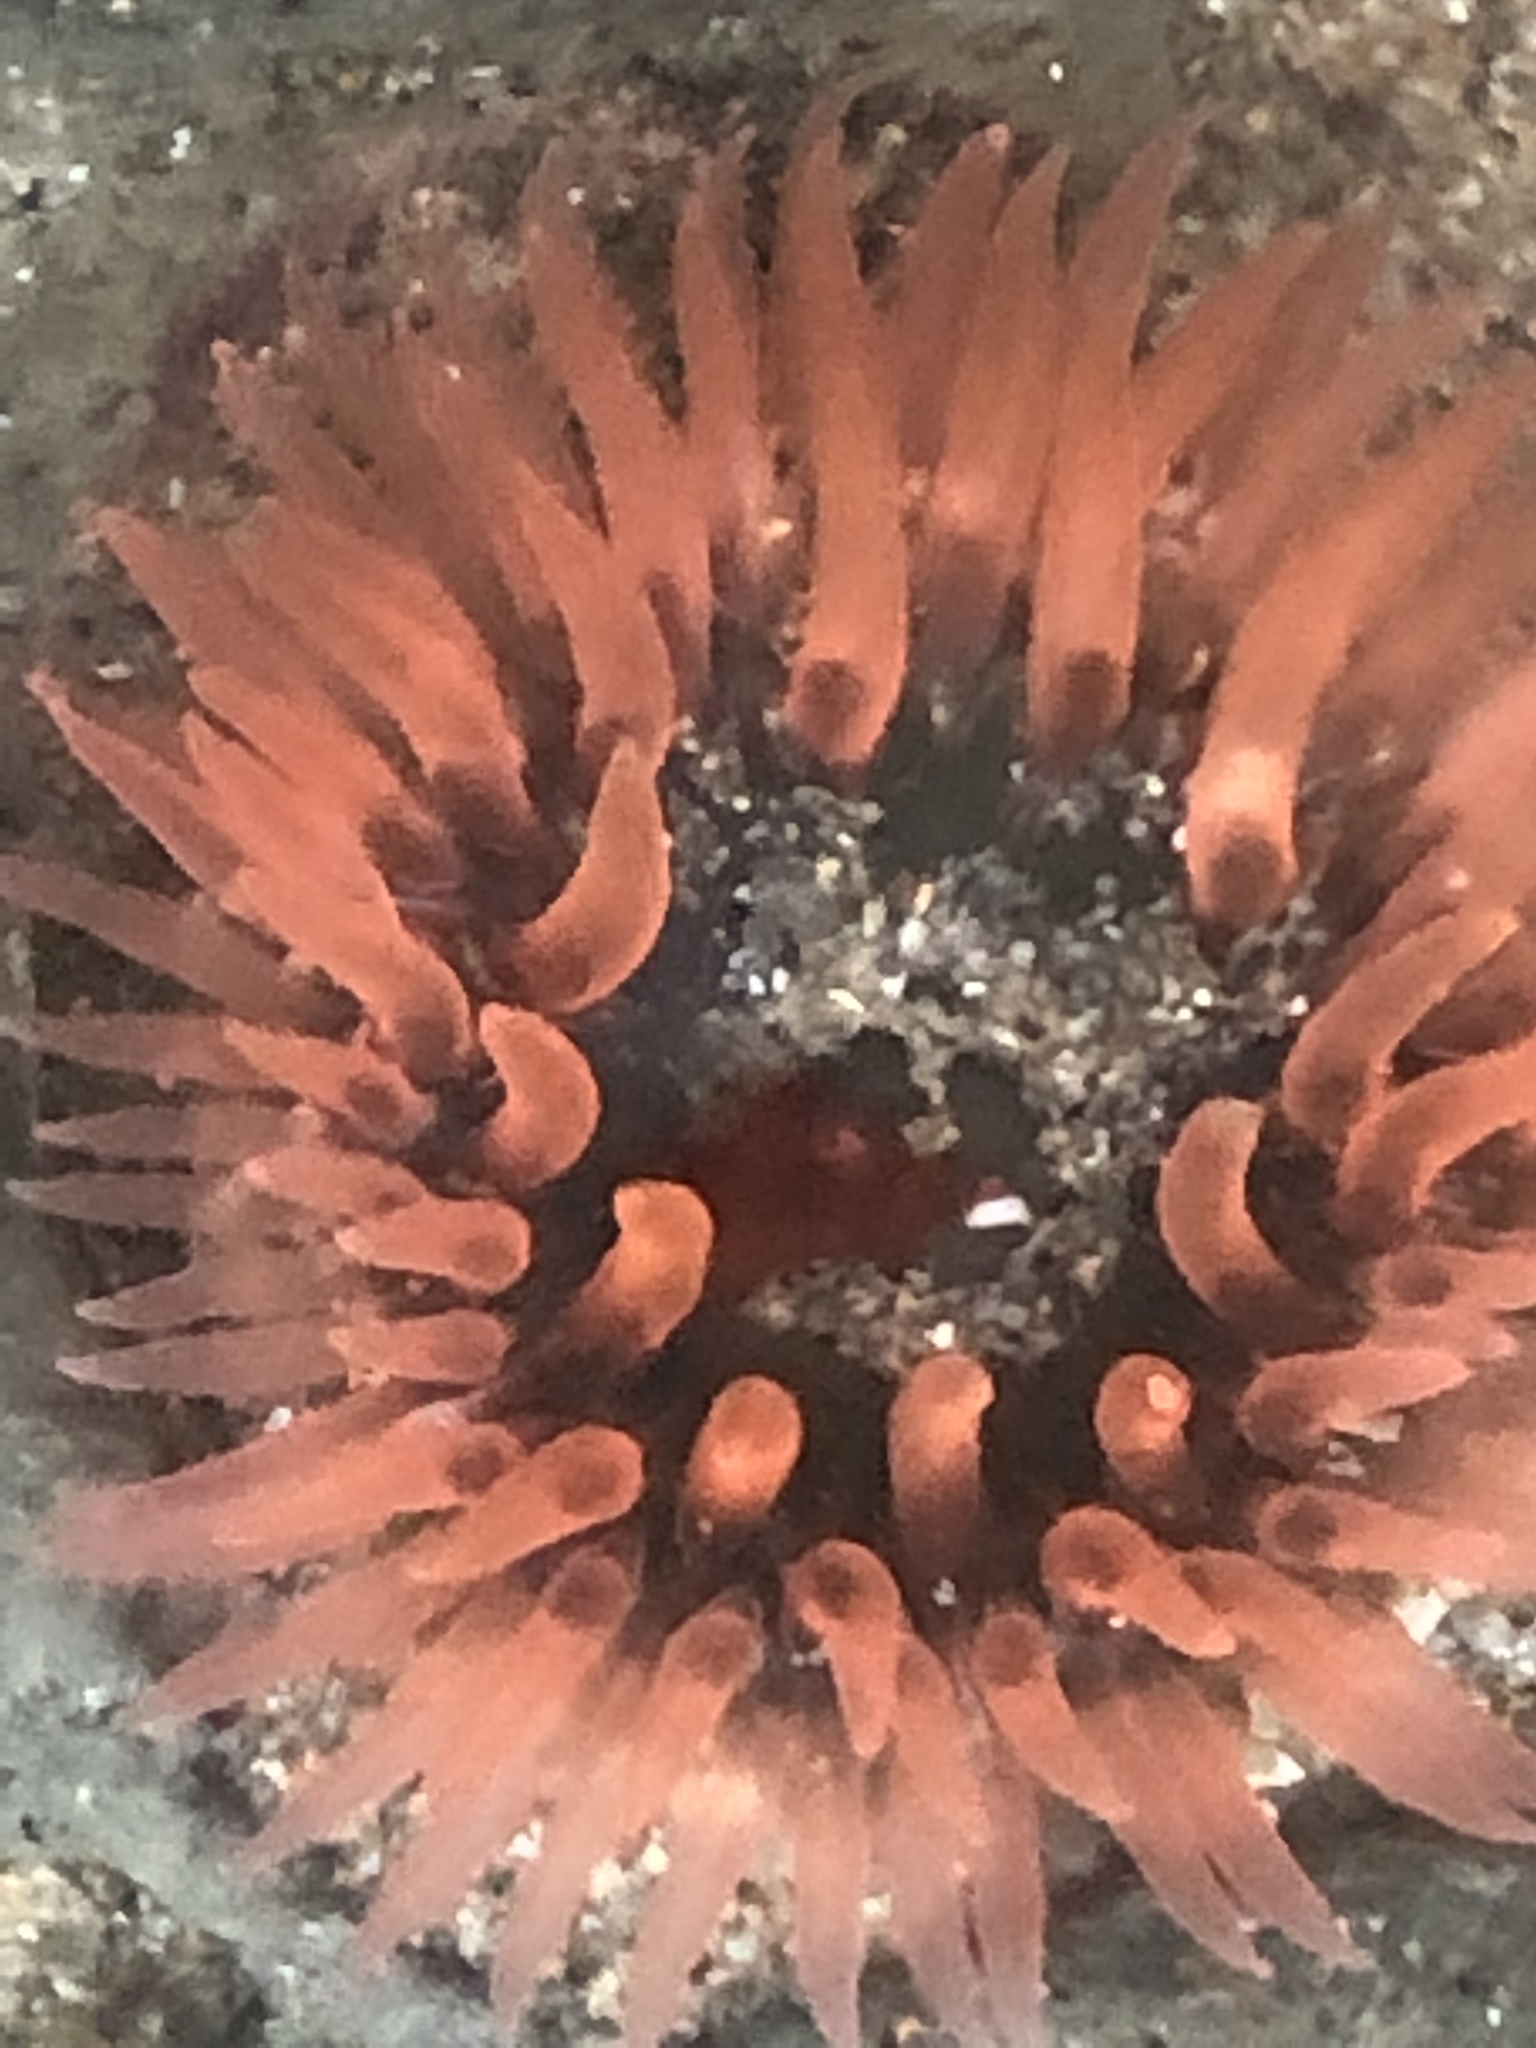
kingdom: Animalia
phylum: Cnidaria
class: Anthozoa
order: Actiniaria
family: Actiniidae
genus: Anthopleura
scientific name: Anthopleura artemisia
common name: Buried sea anemone
